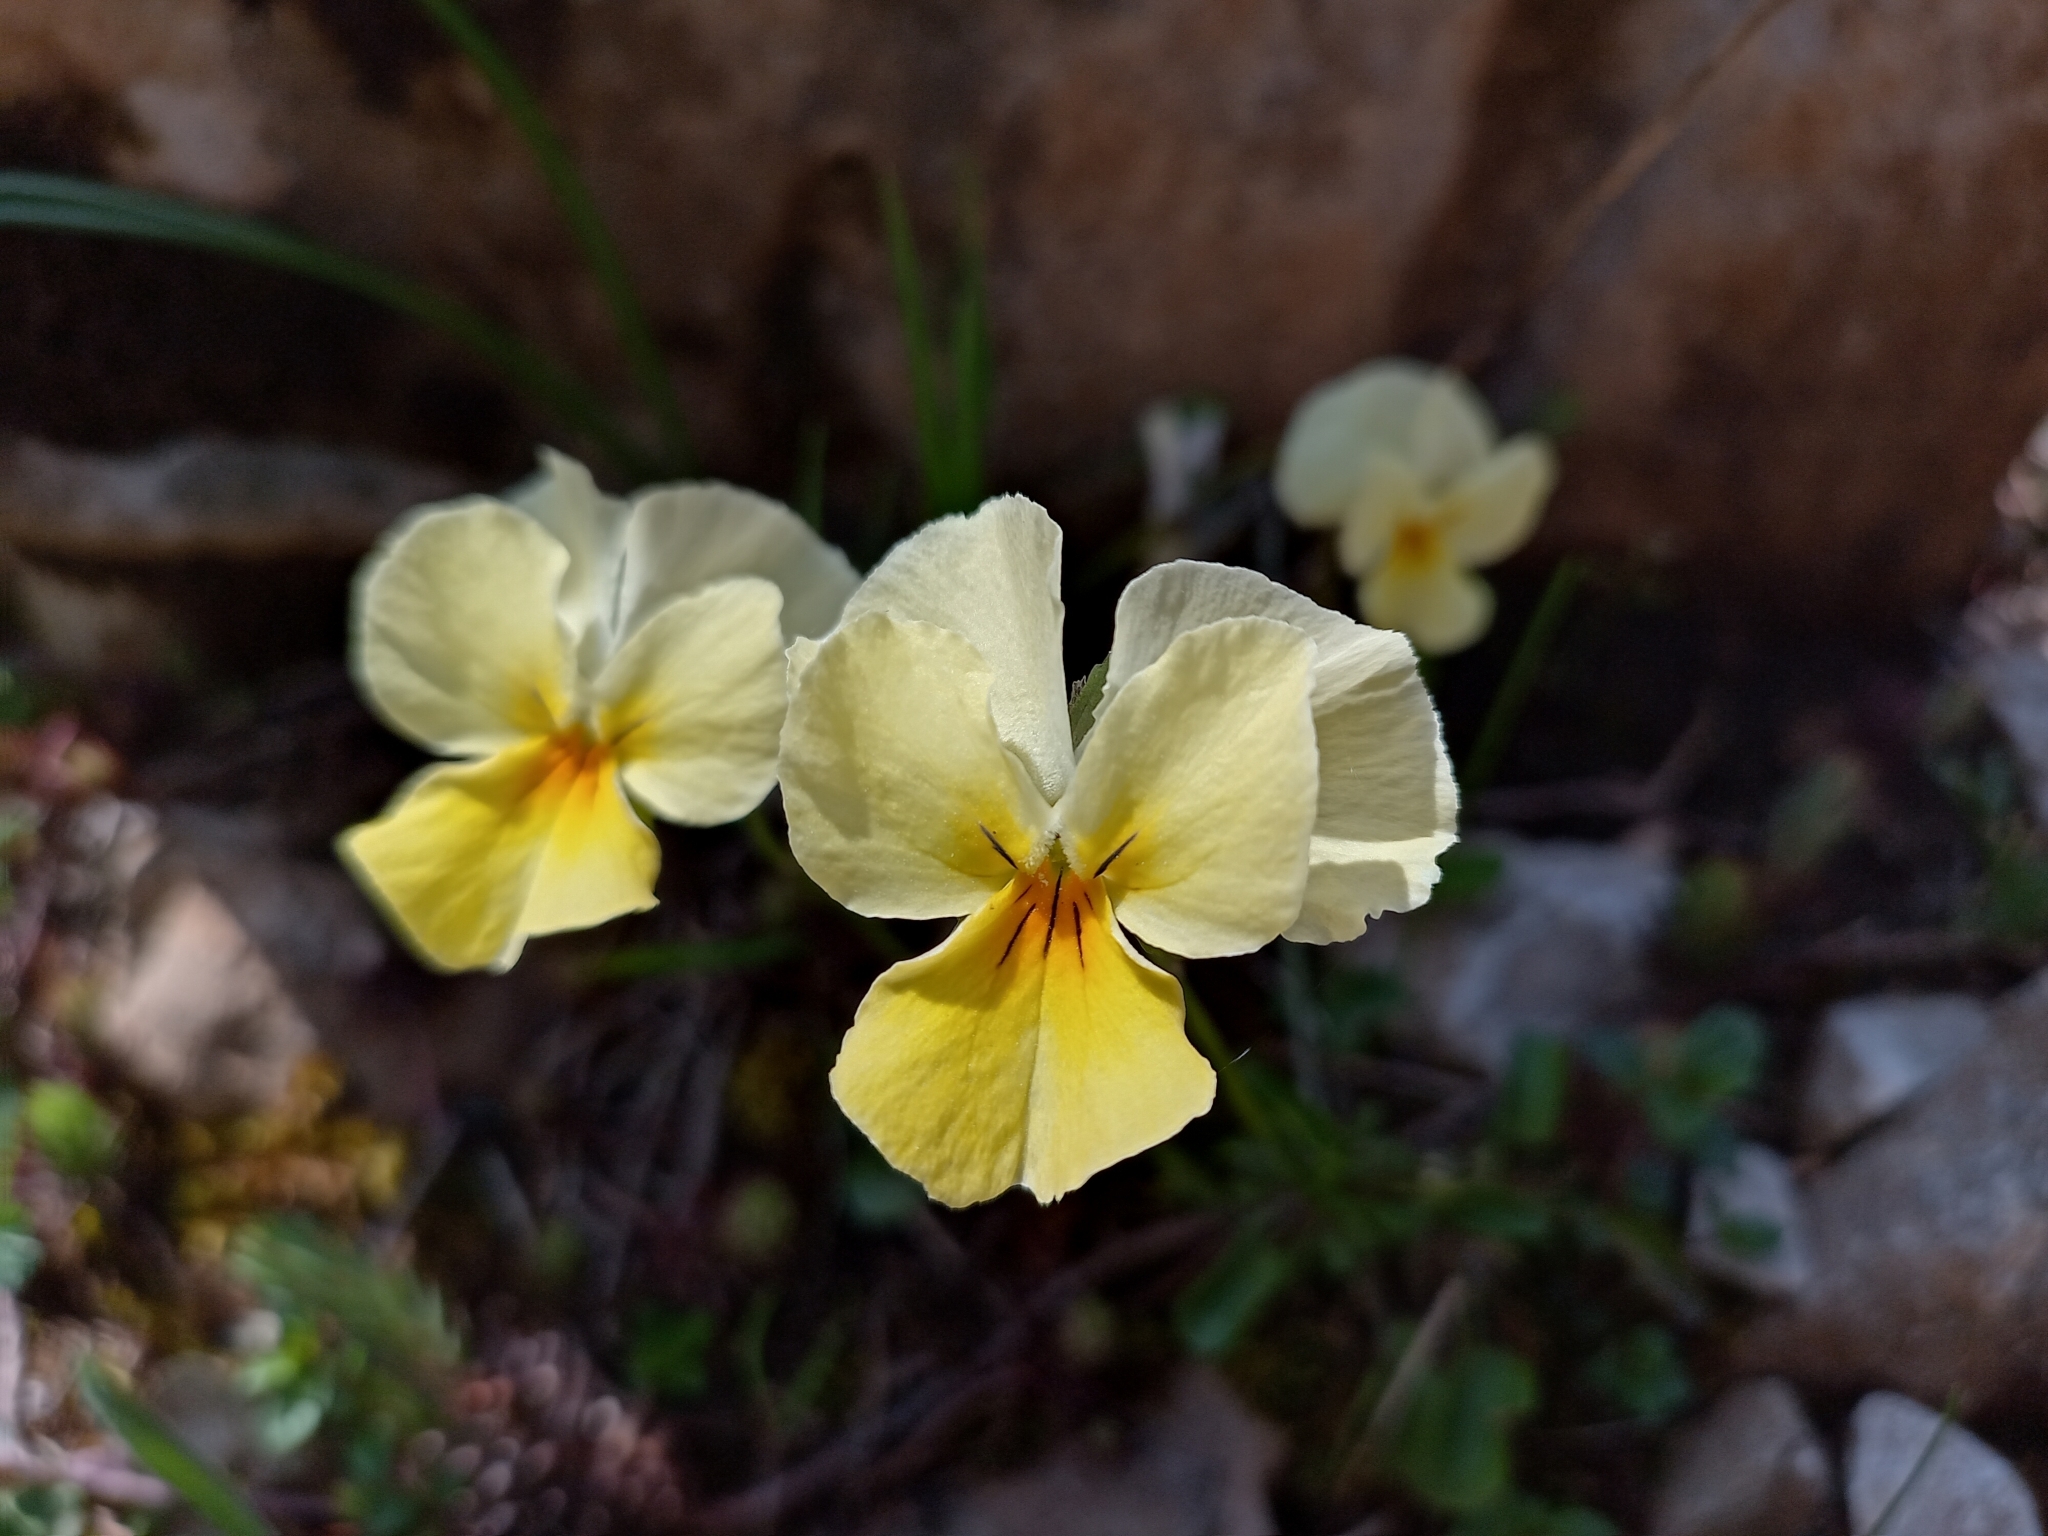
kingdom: Plantae
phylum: Tracheophyta
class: Magnoliopsida
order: Malpighiales
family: Violaceae
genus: Viola
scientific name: Viola eugeniae
